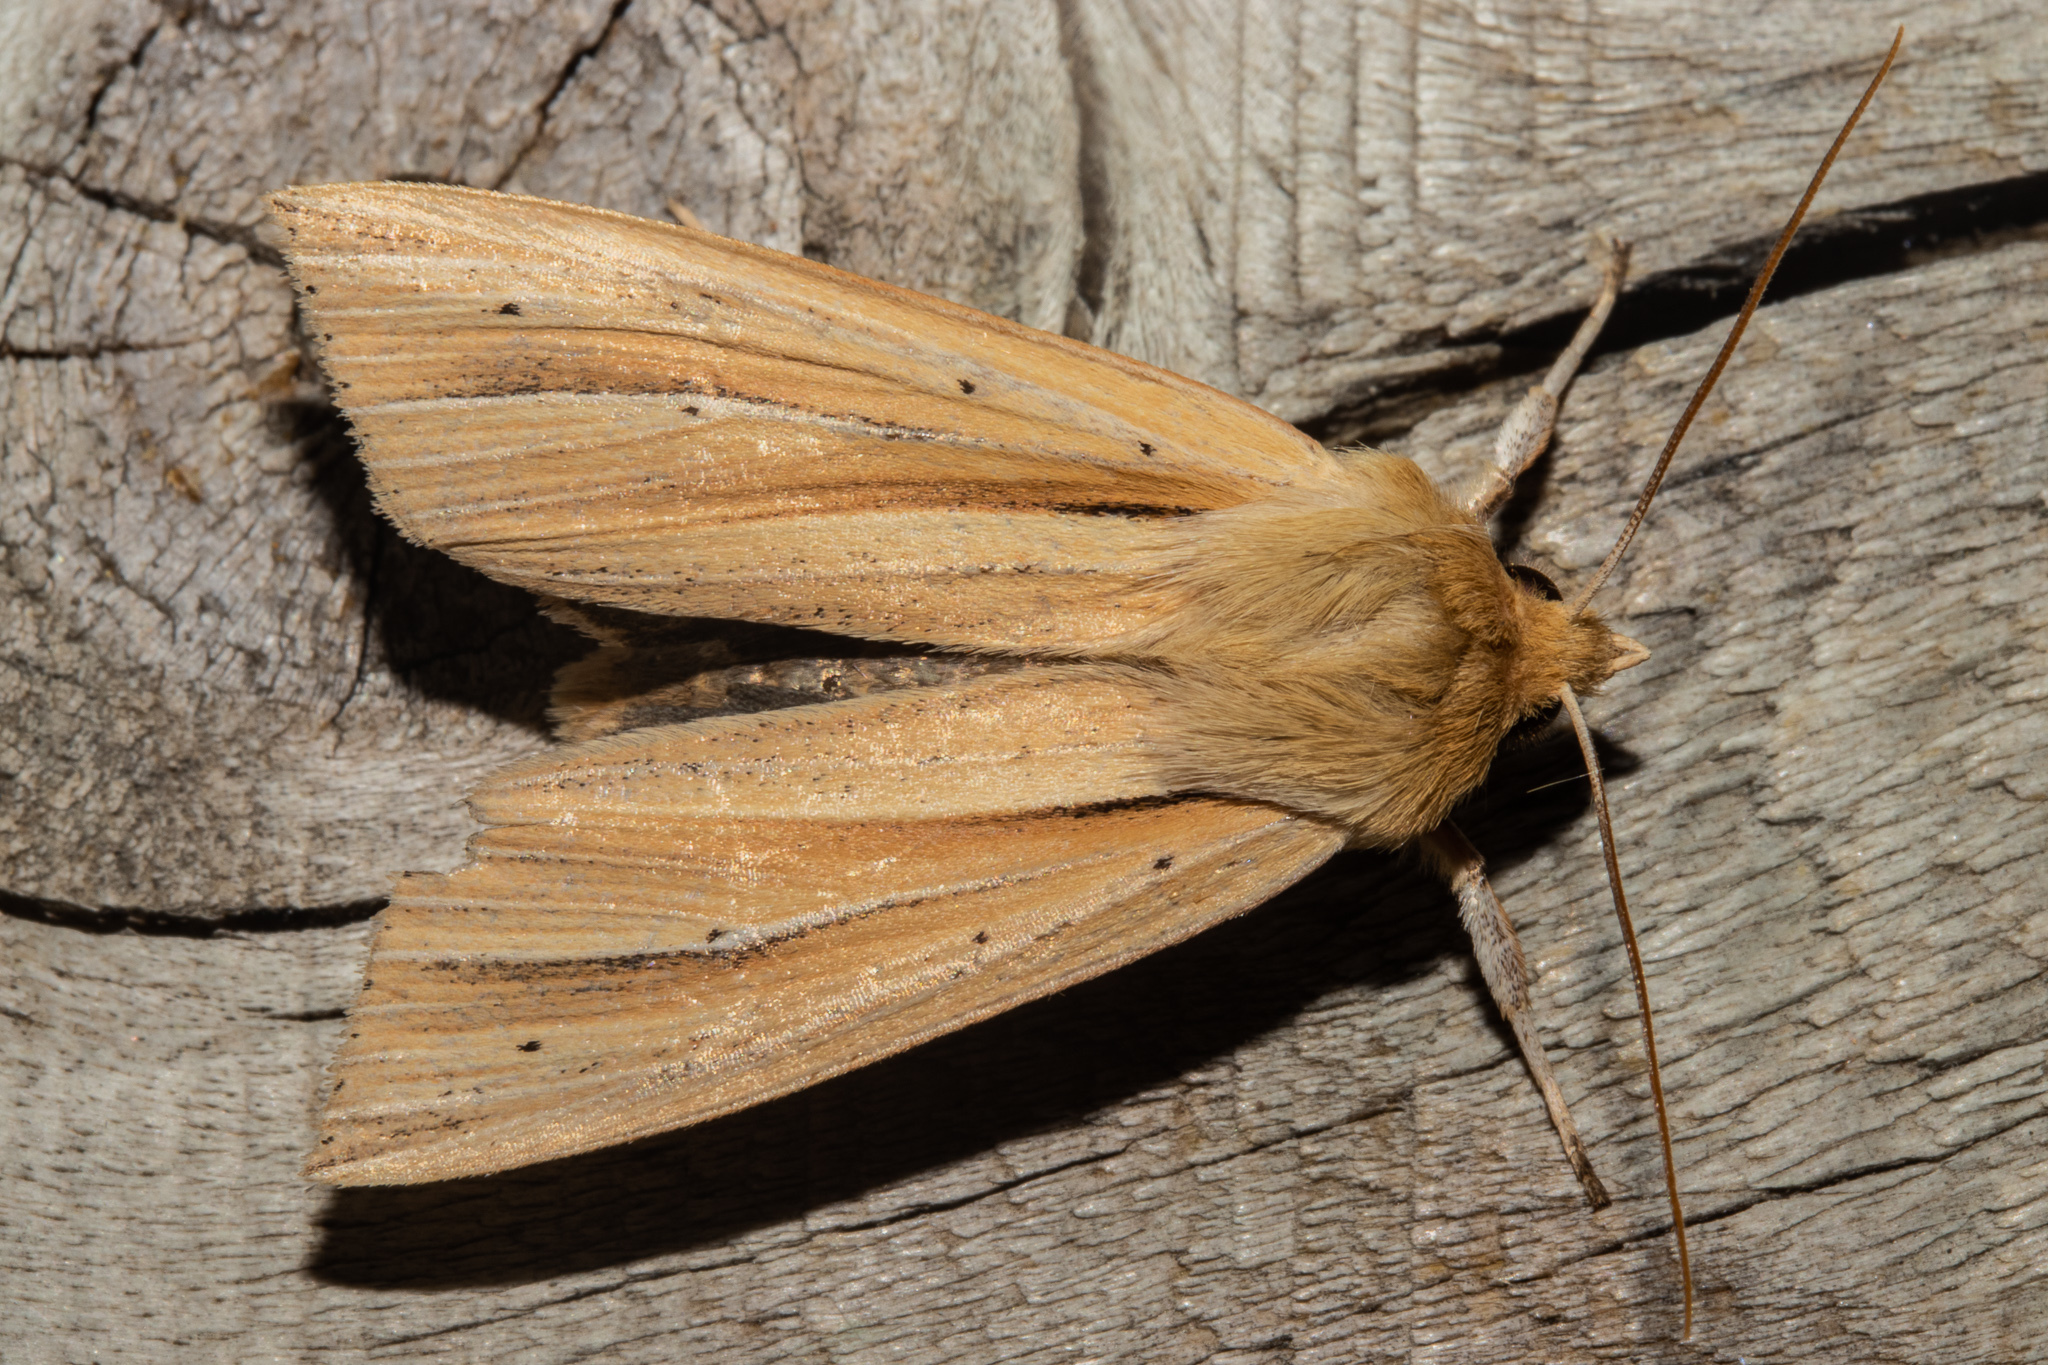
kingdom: Animalia
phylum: Arthropoda
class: Insecta
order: Lepidoptera
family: Noctuidae
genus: Ichneutica
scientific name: Ichneutica sulcana
